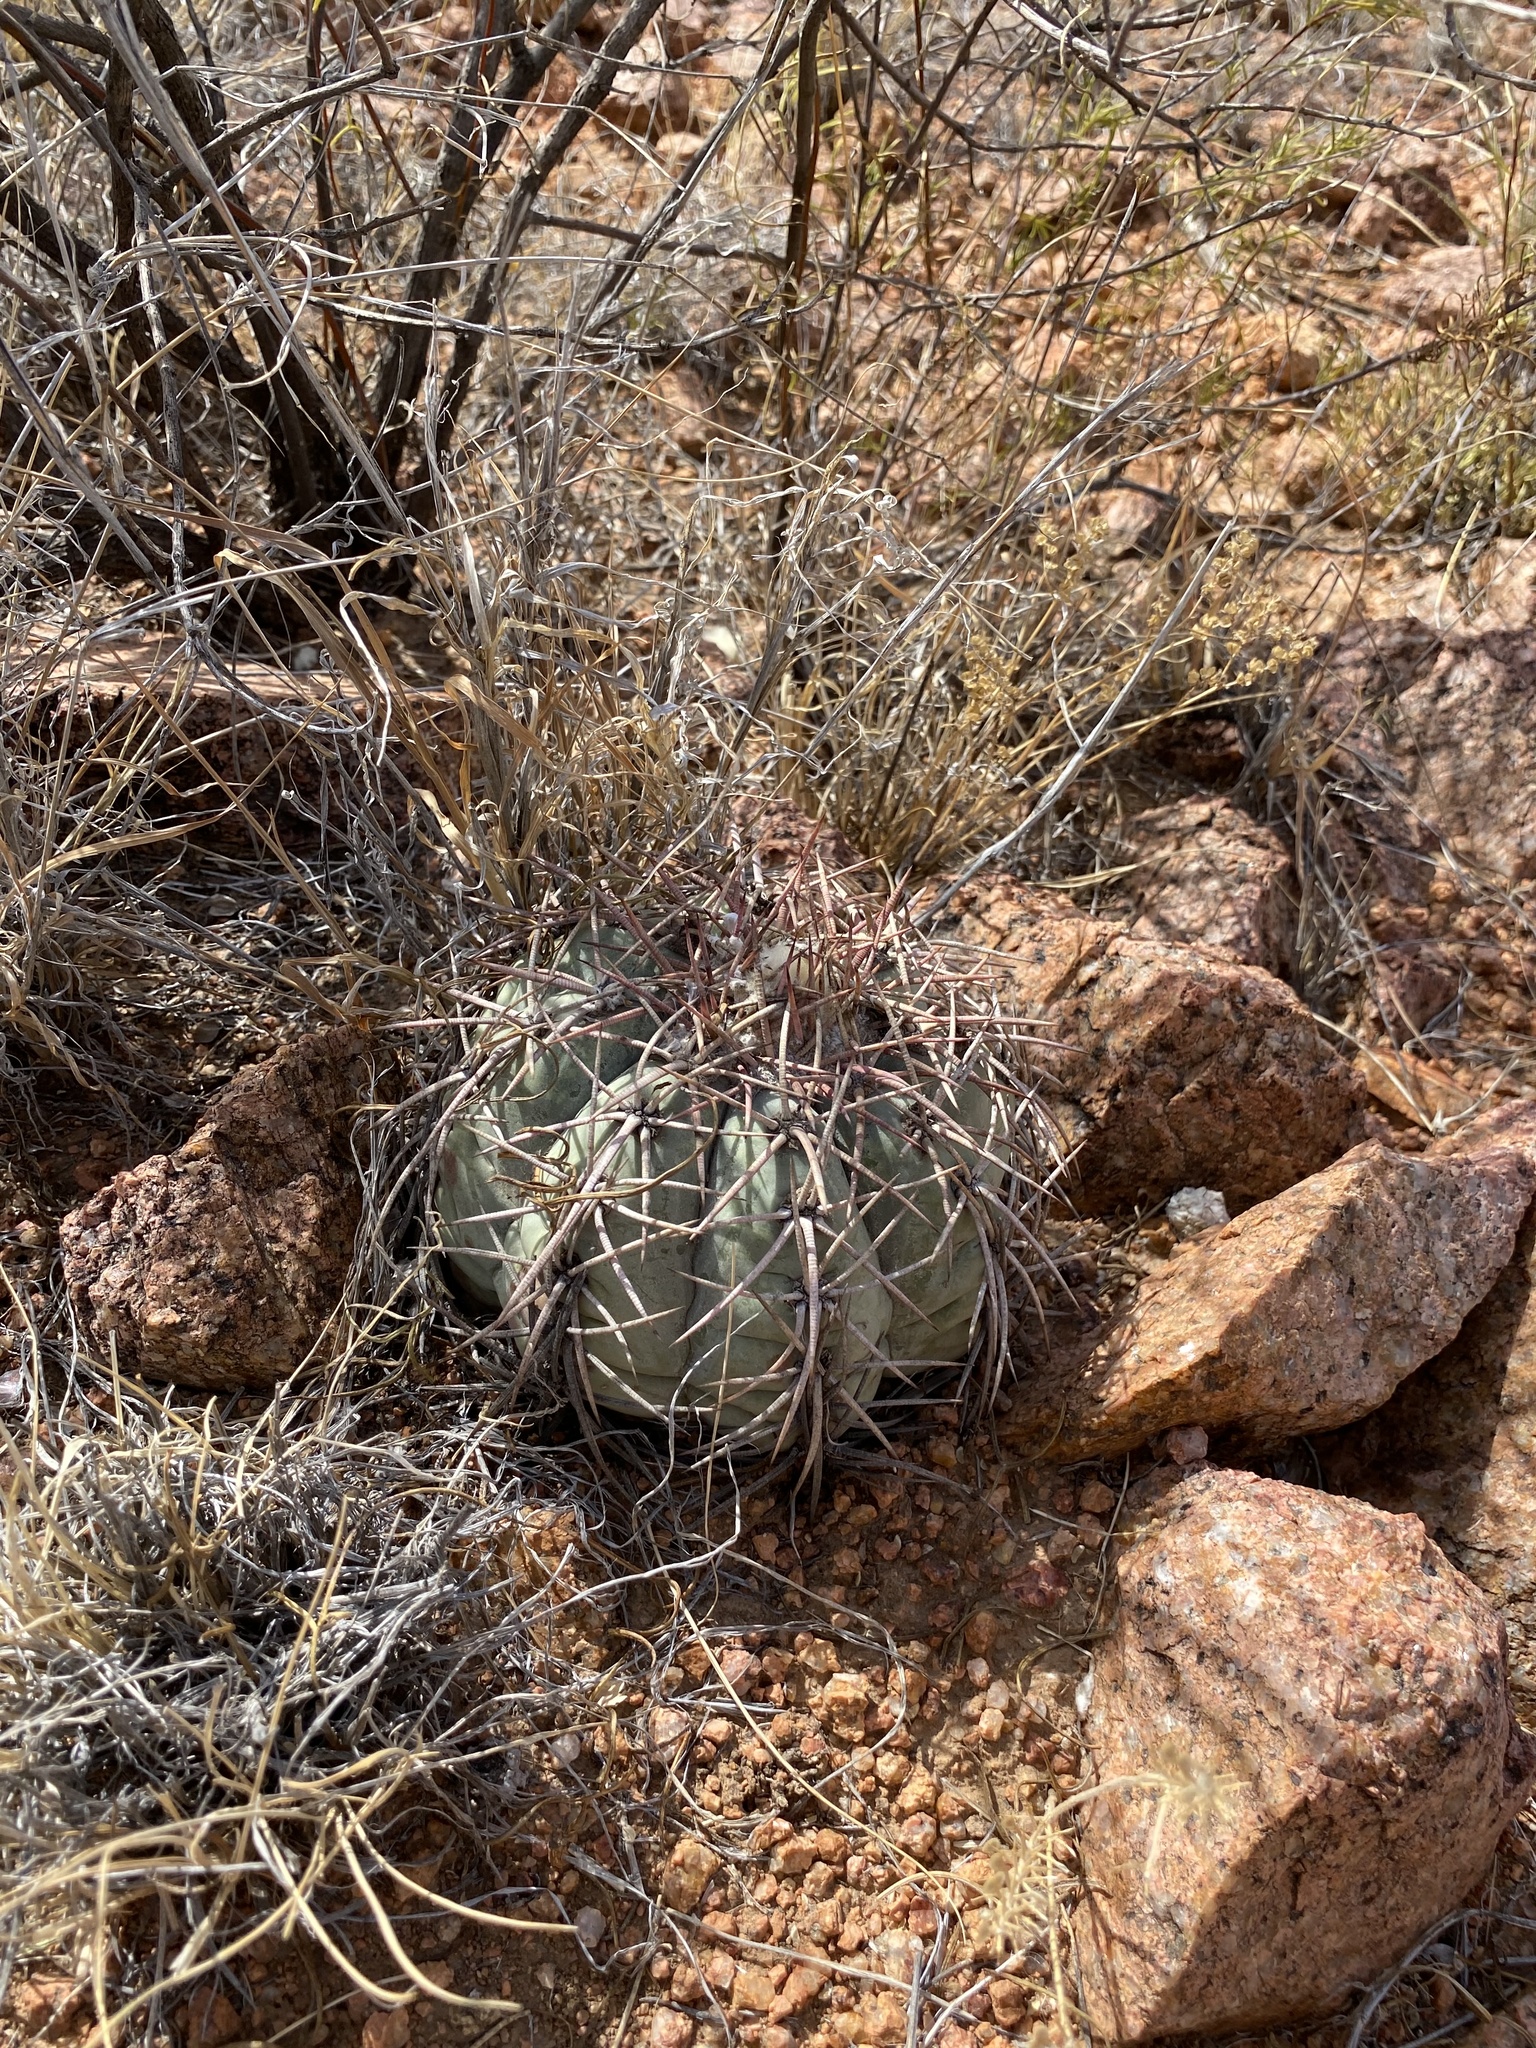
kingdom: Plantae
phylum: Tracheophyta
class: Magnoliopsida
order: Caryophyllales
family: Cactaceae
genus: Echinocactus
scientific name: Echinocactus horizonthalonius
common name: Devilshead
